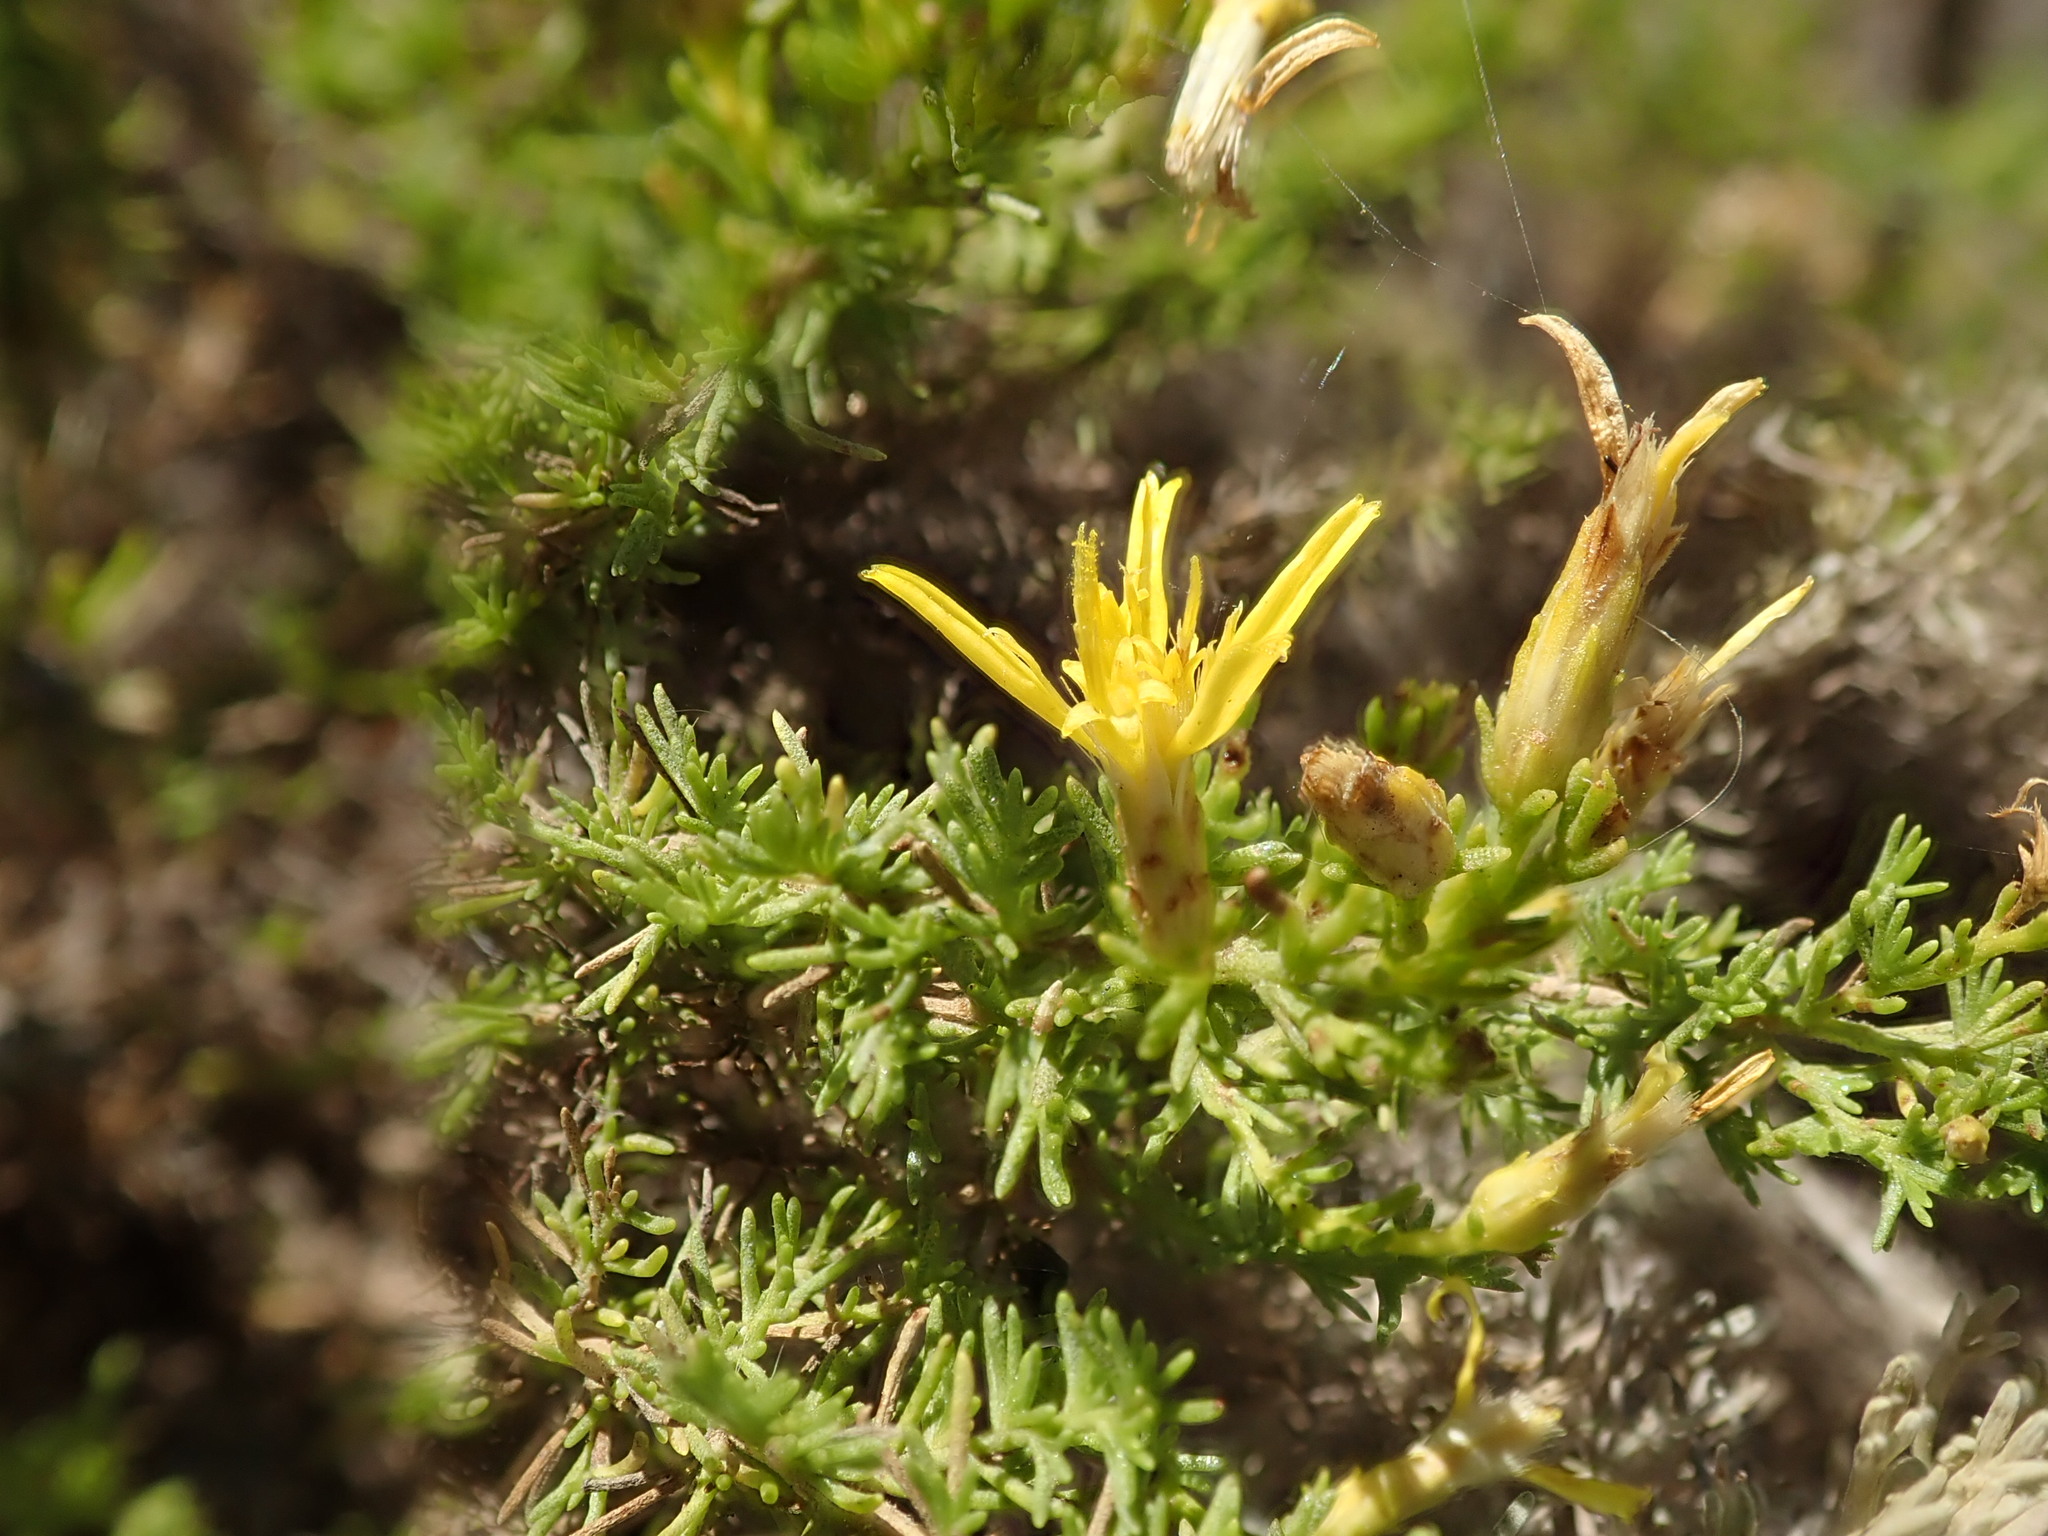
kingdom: Plantae
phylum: Tracheophyta
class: Magnoliopsida
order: Asterales
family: Asteraceae
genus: Ericameria
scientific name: Ericameria ericoides
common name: California goldenbush
